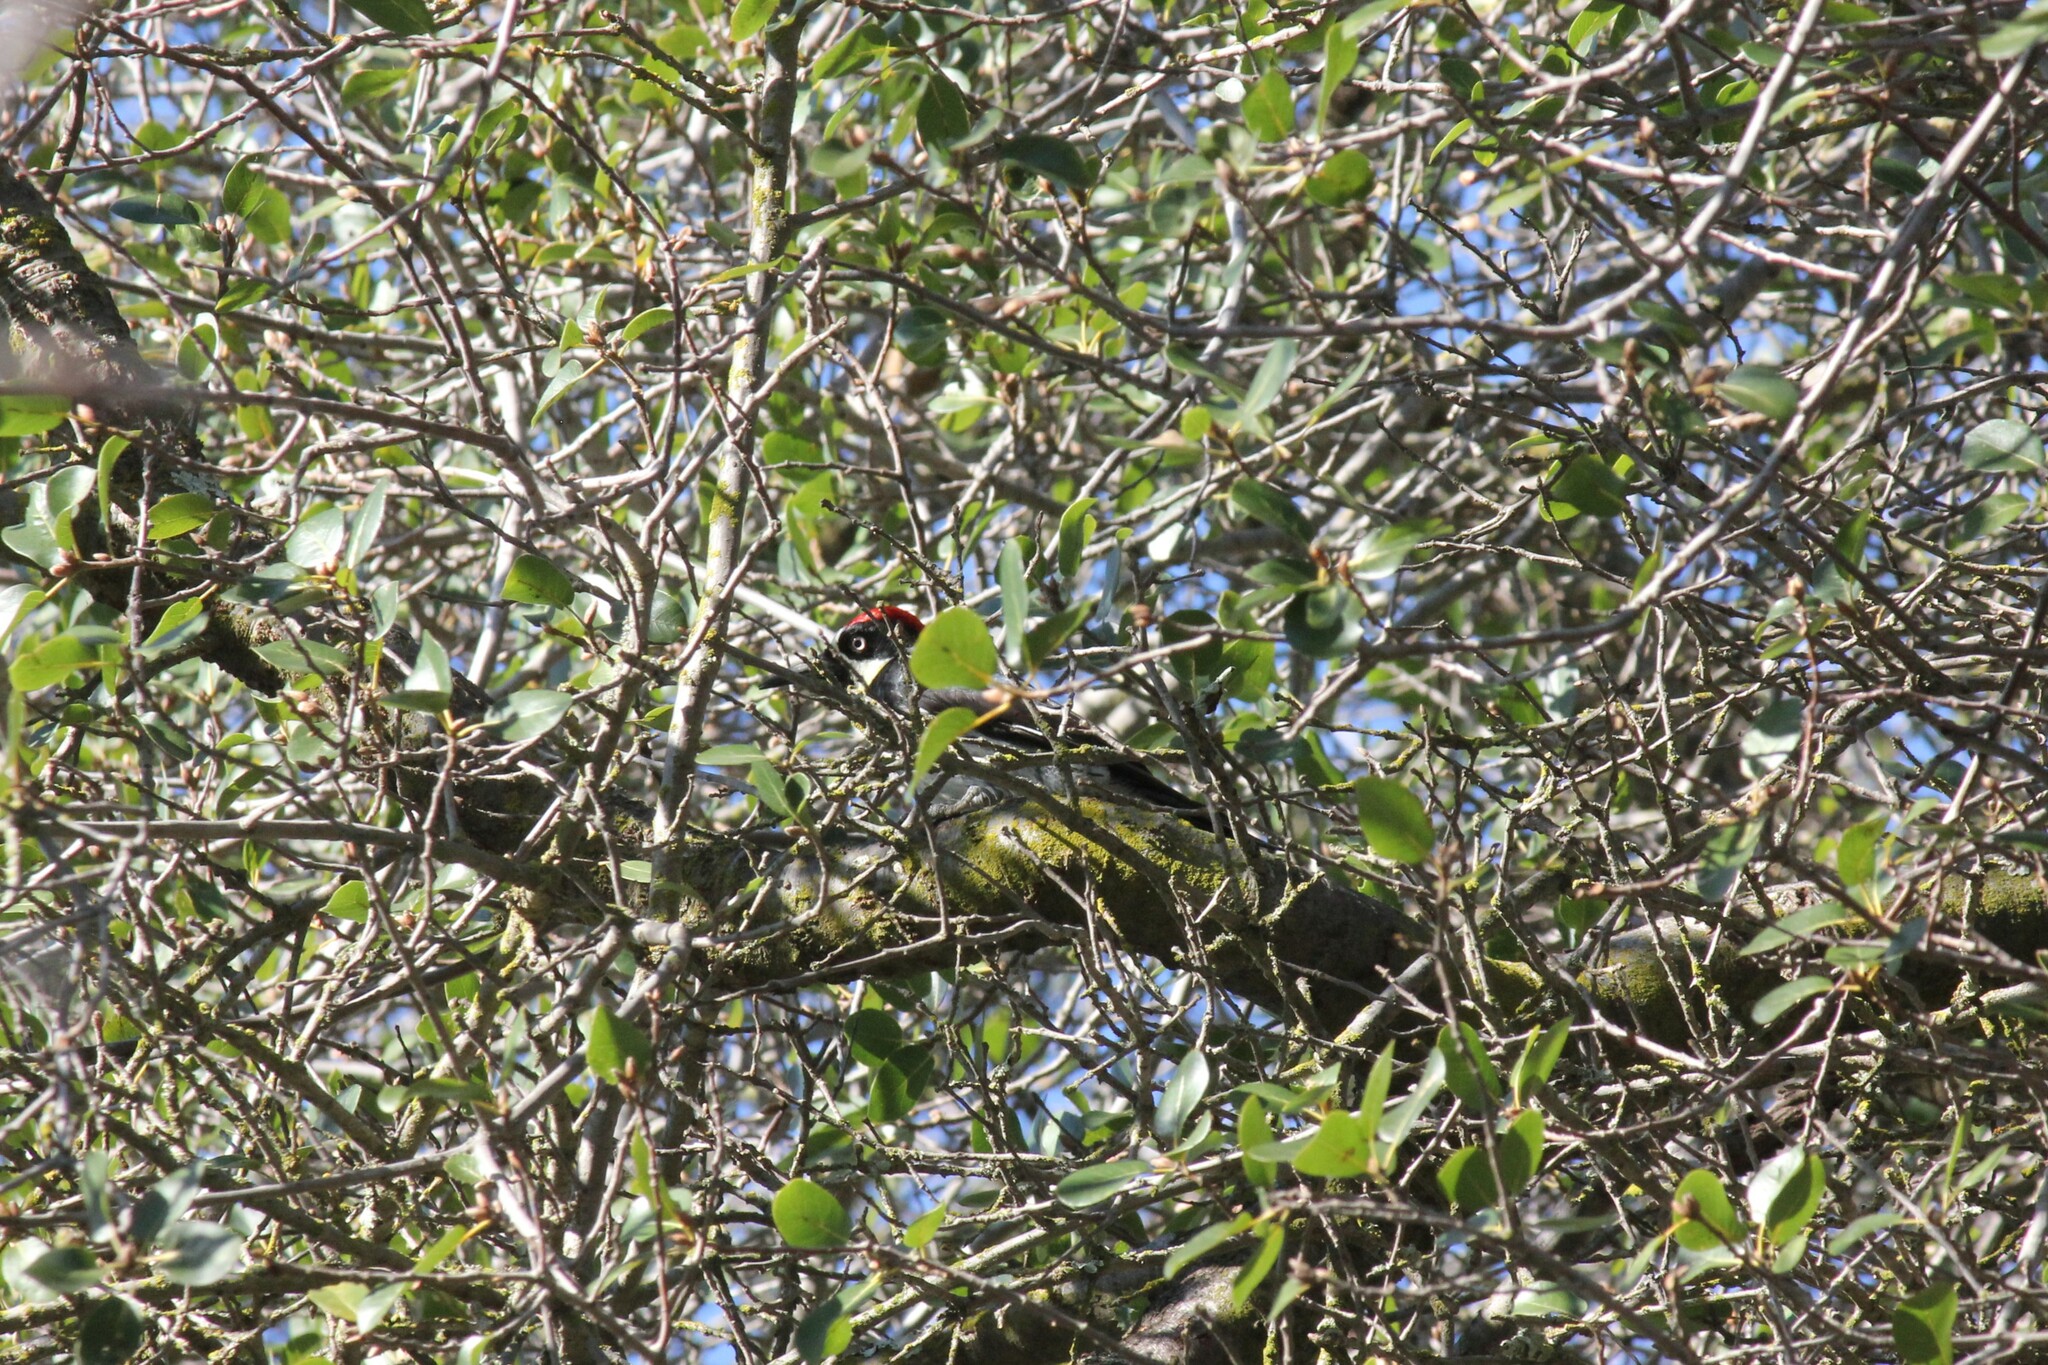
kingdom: Animalia
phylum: Chordata
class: Aves
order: Piciformes
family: Picidae
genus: Melanerpes
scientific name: Melanerpes formicivorus
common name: Acorn woodpecker
